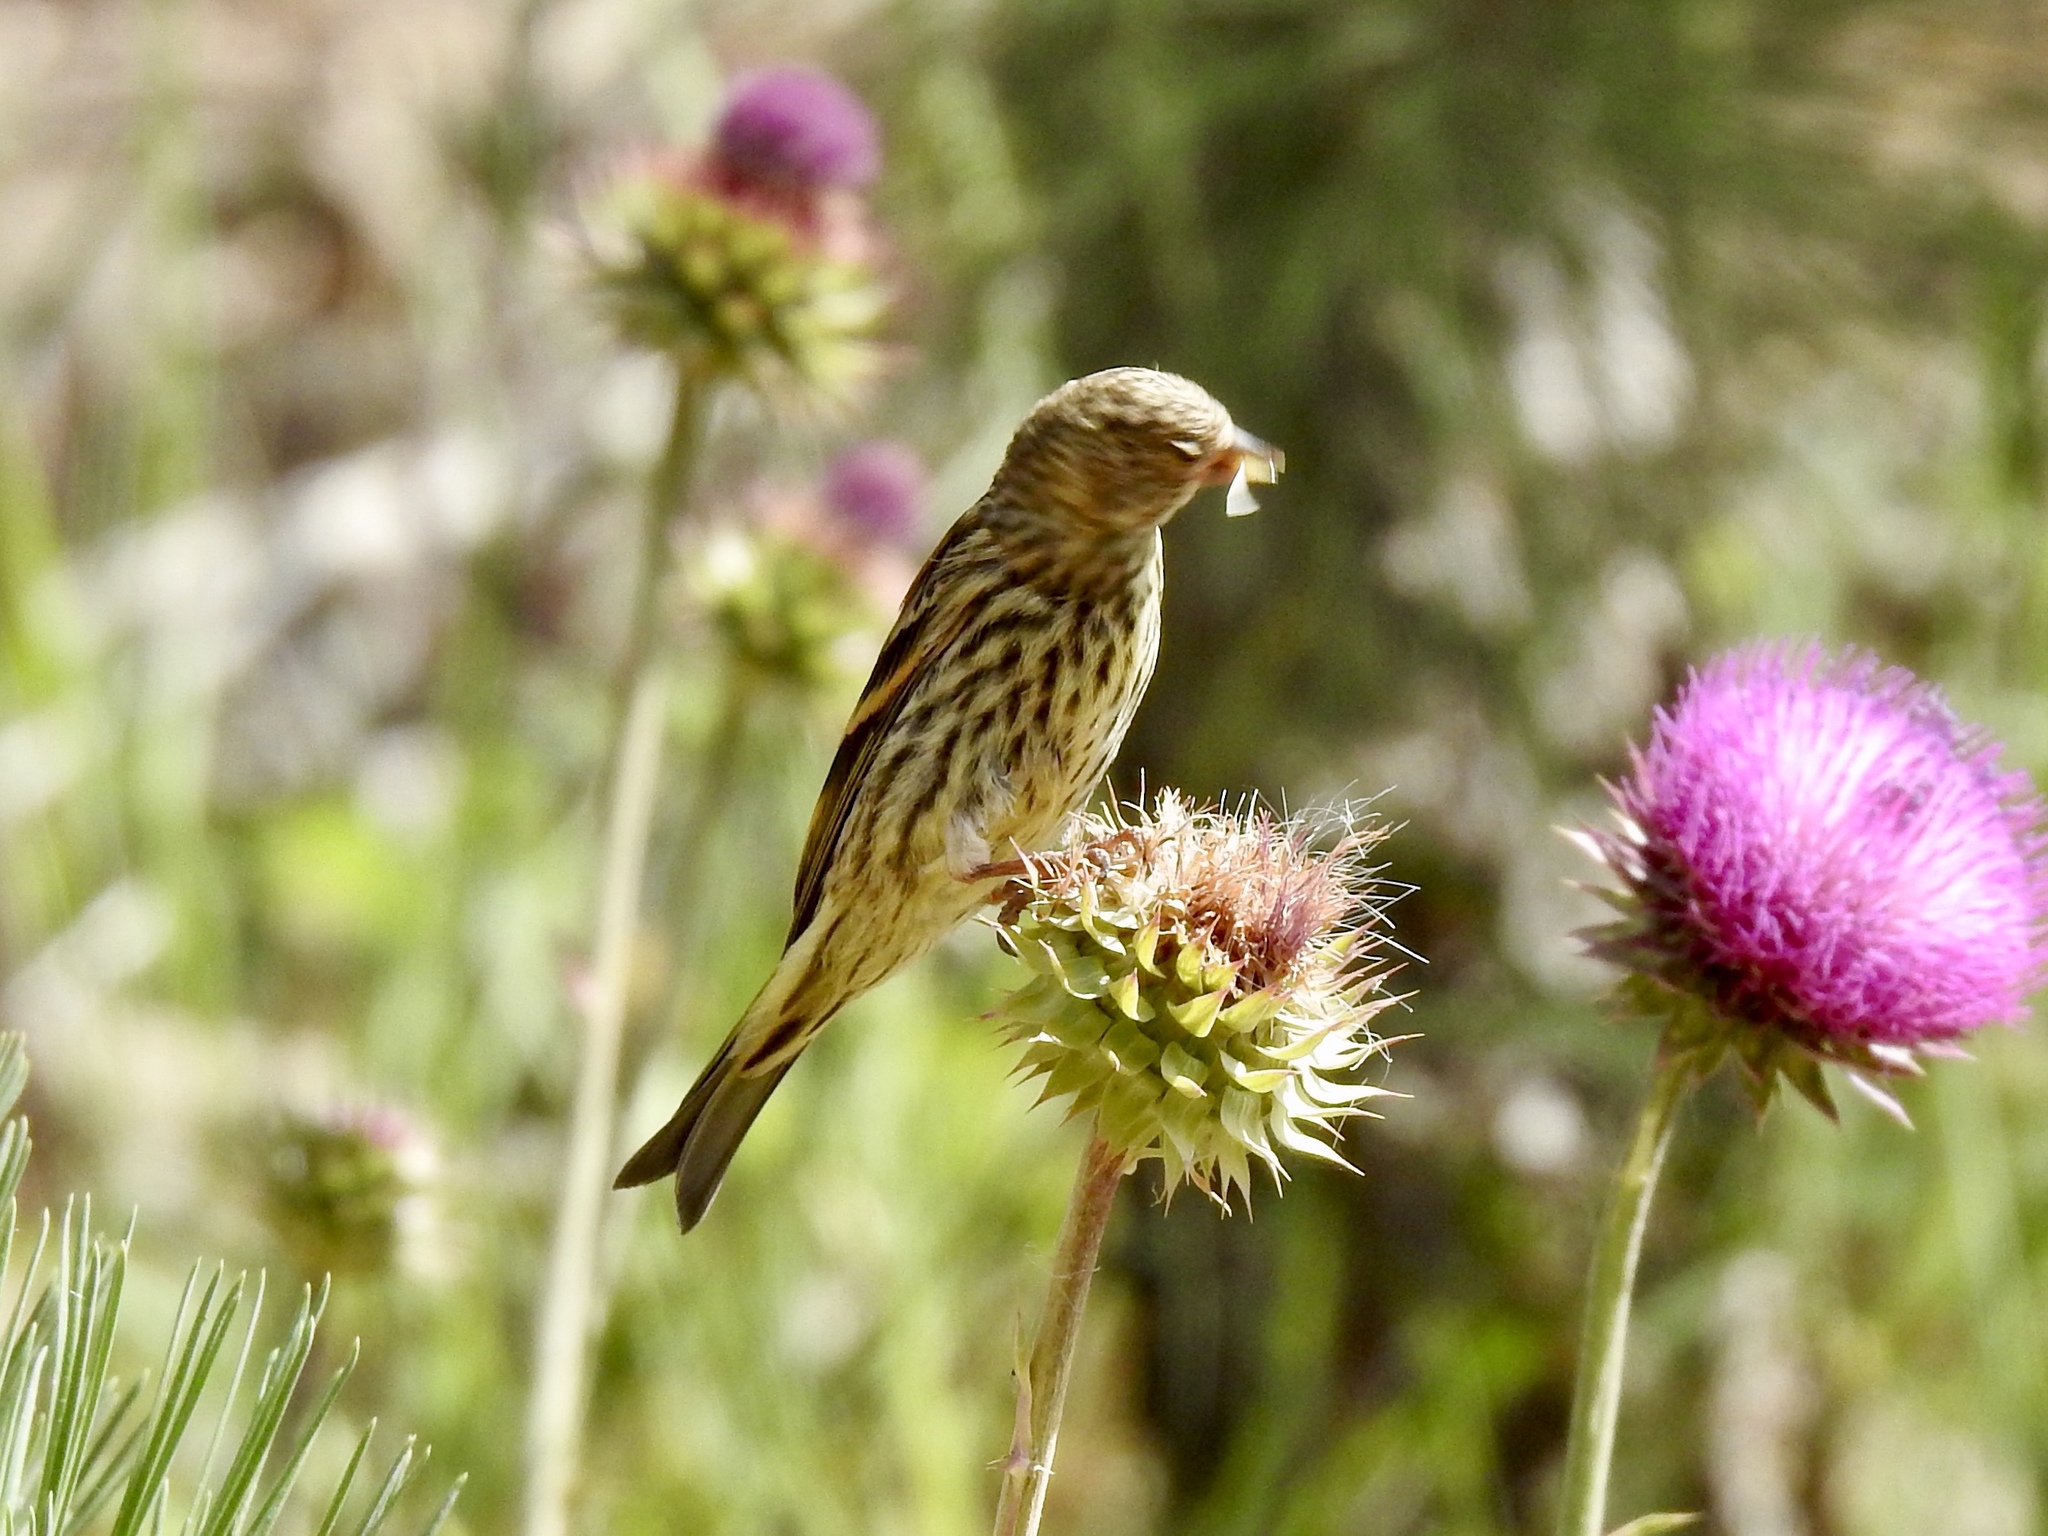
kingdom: Animalia
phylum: Chordata
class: Aves
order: Passeriformes
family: Fringillidae
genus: Spinus
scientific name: Spinus pinus
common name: Pine siskin
